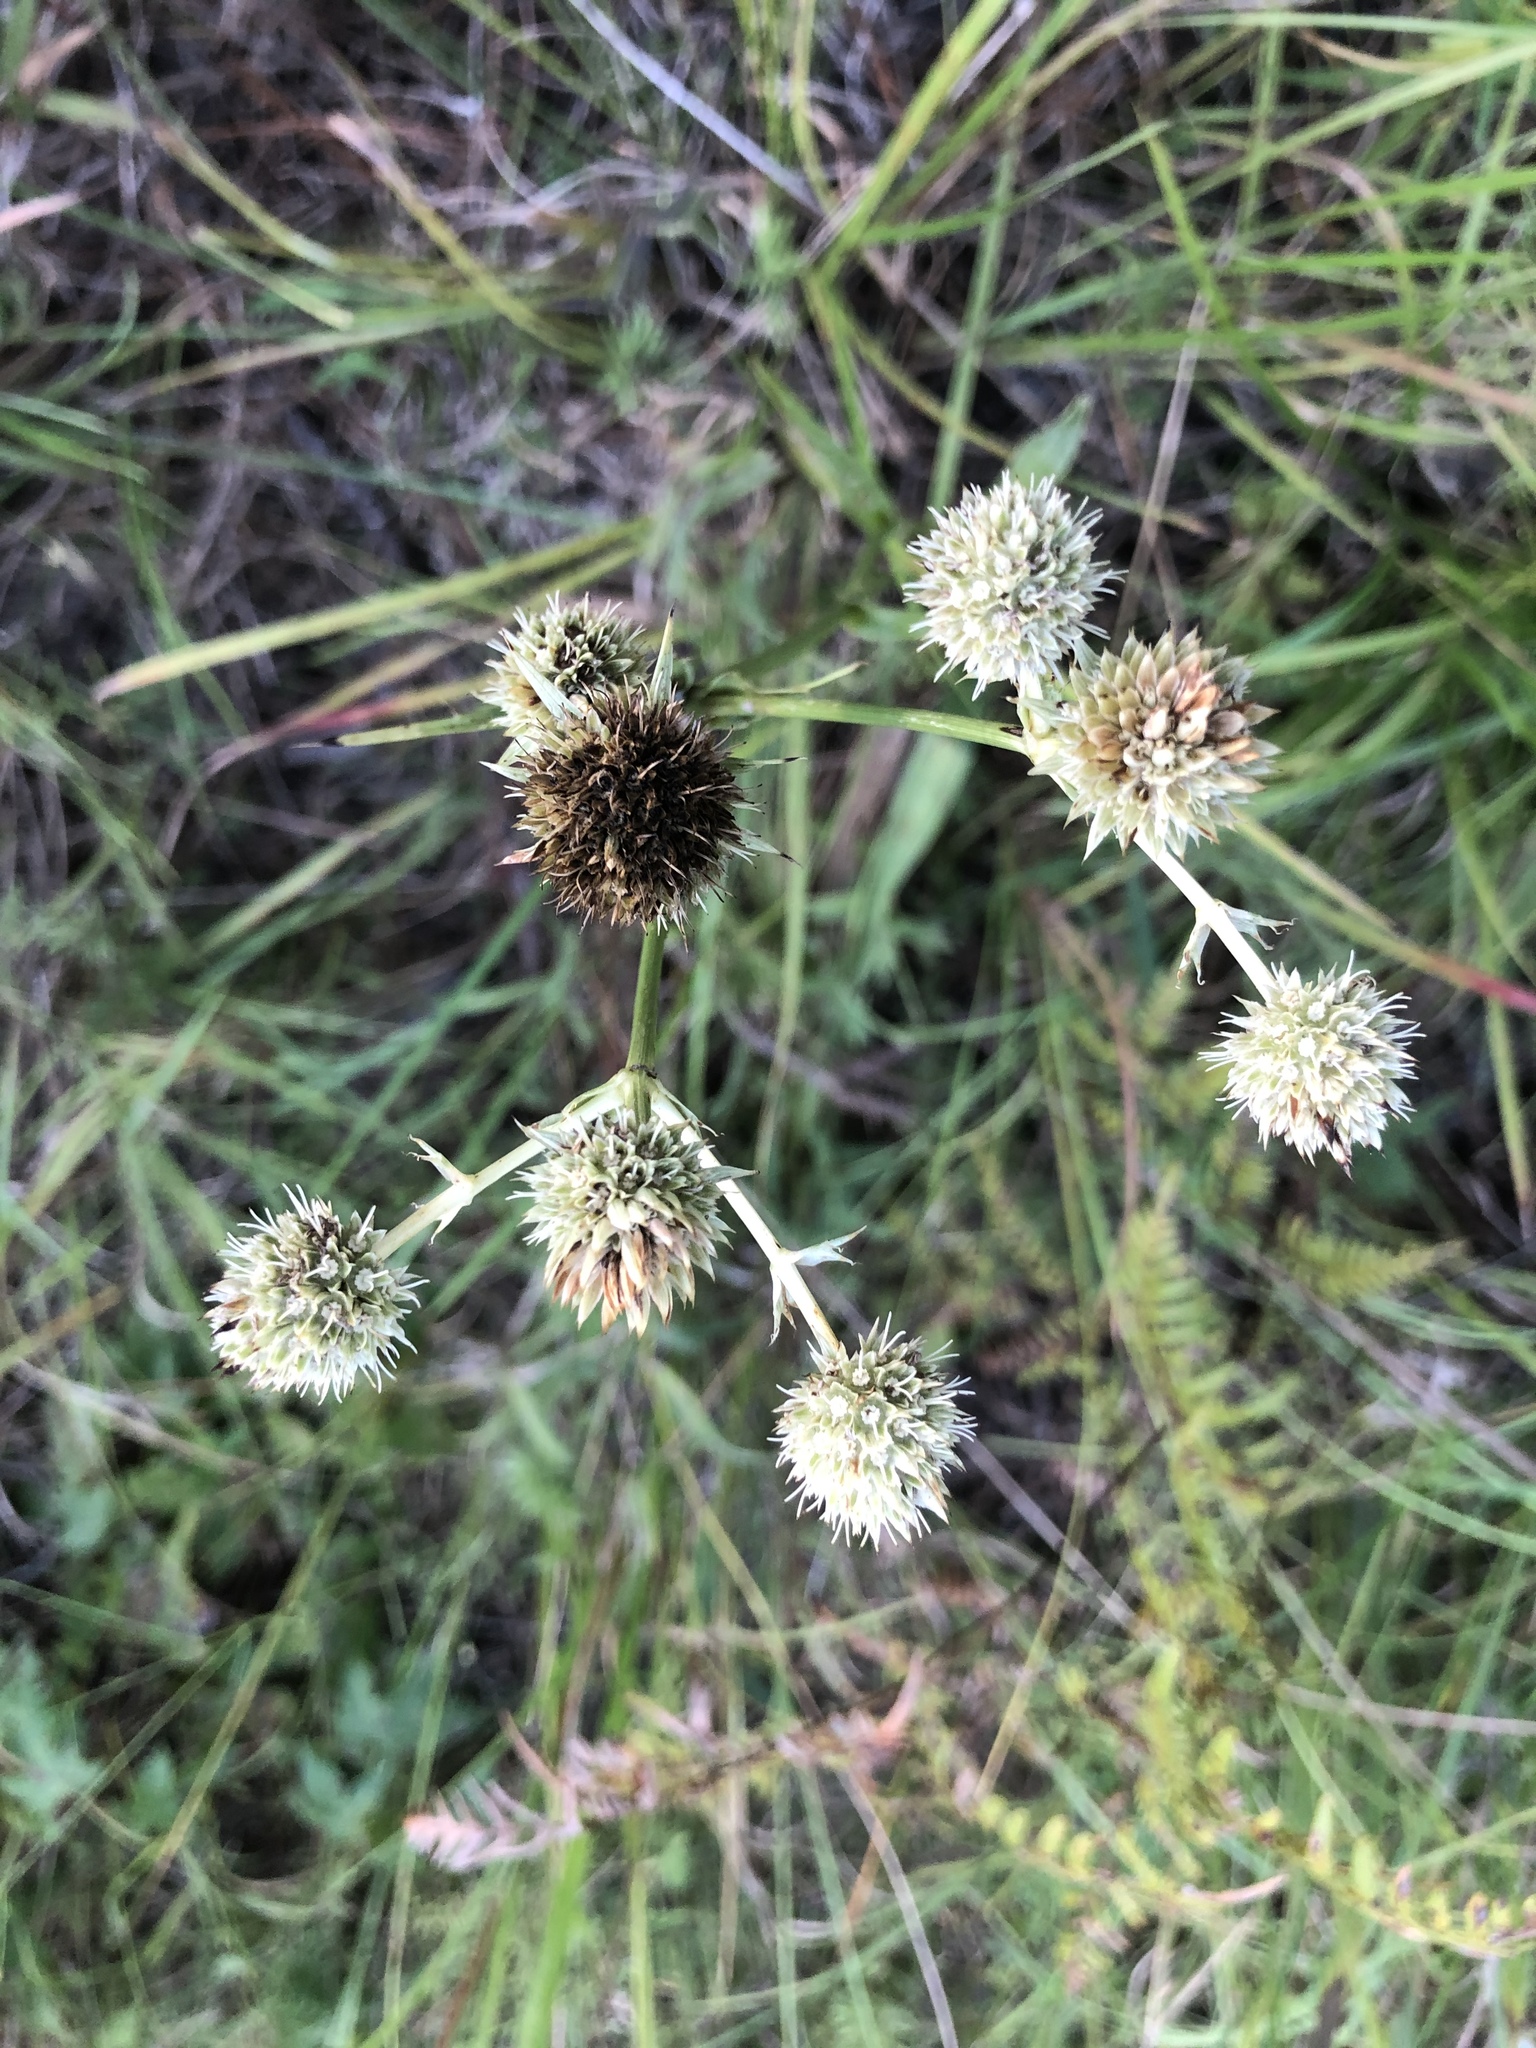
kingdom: Plantae
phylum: Tracheophyta
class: Magnoliopsida
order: Apiales
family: Apiaceae
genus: Eryngium
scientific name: Eryngium yuccifolium
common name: Button eryngo
